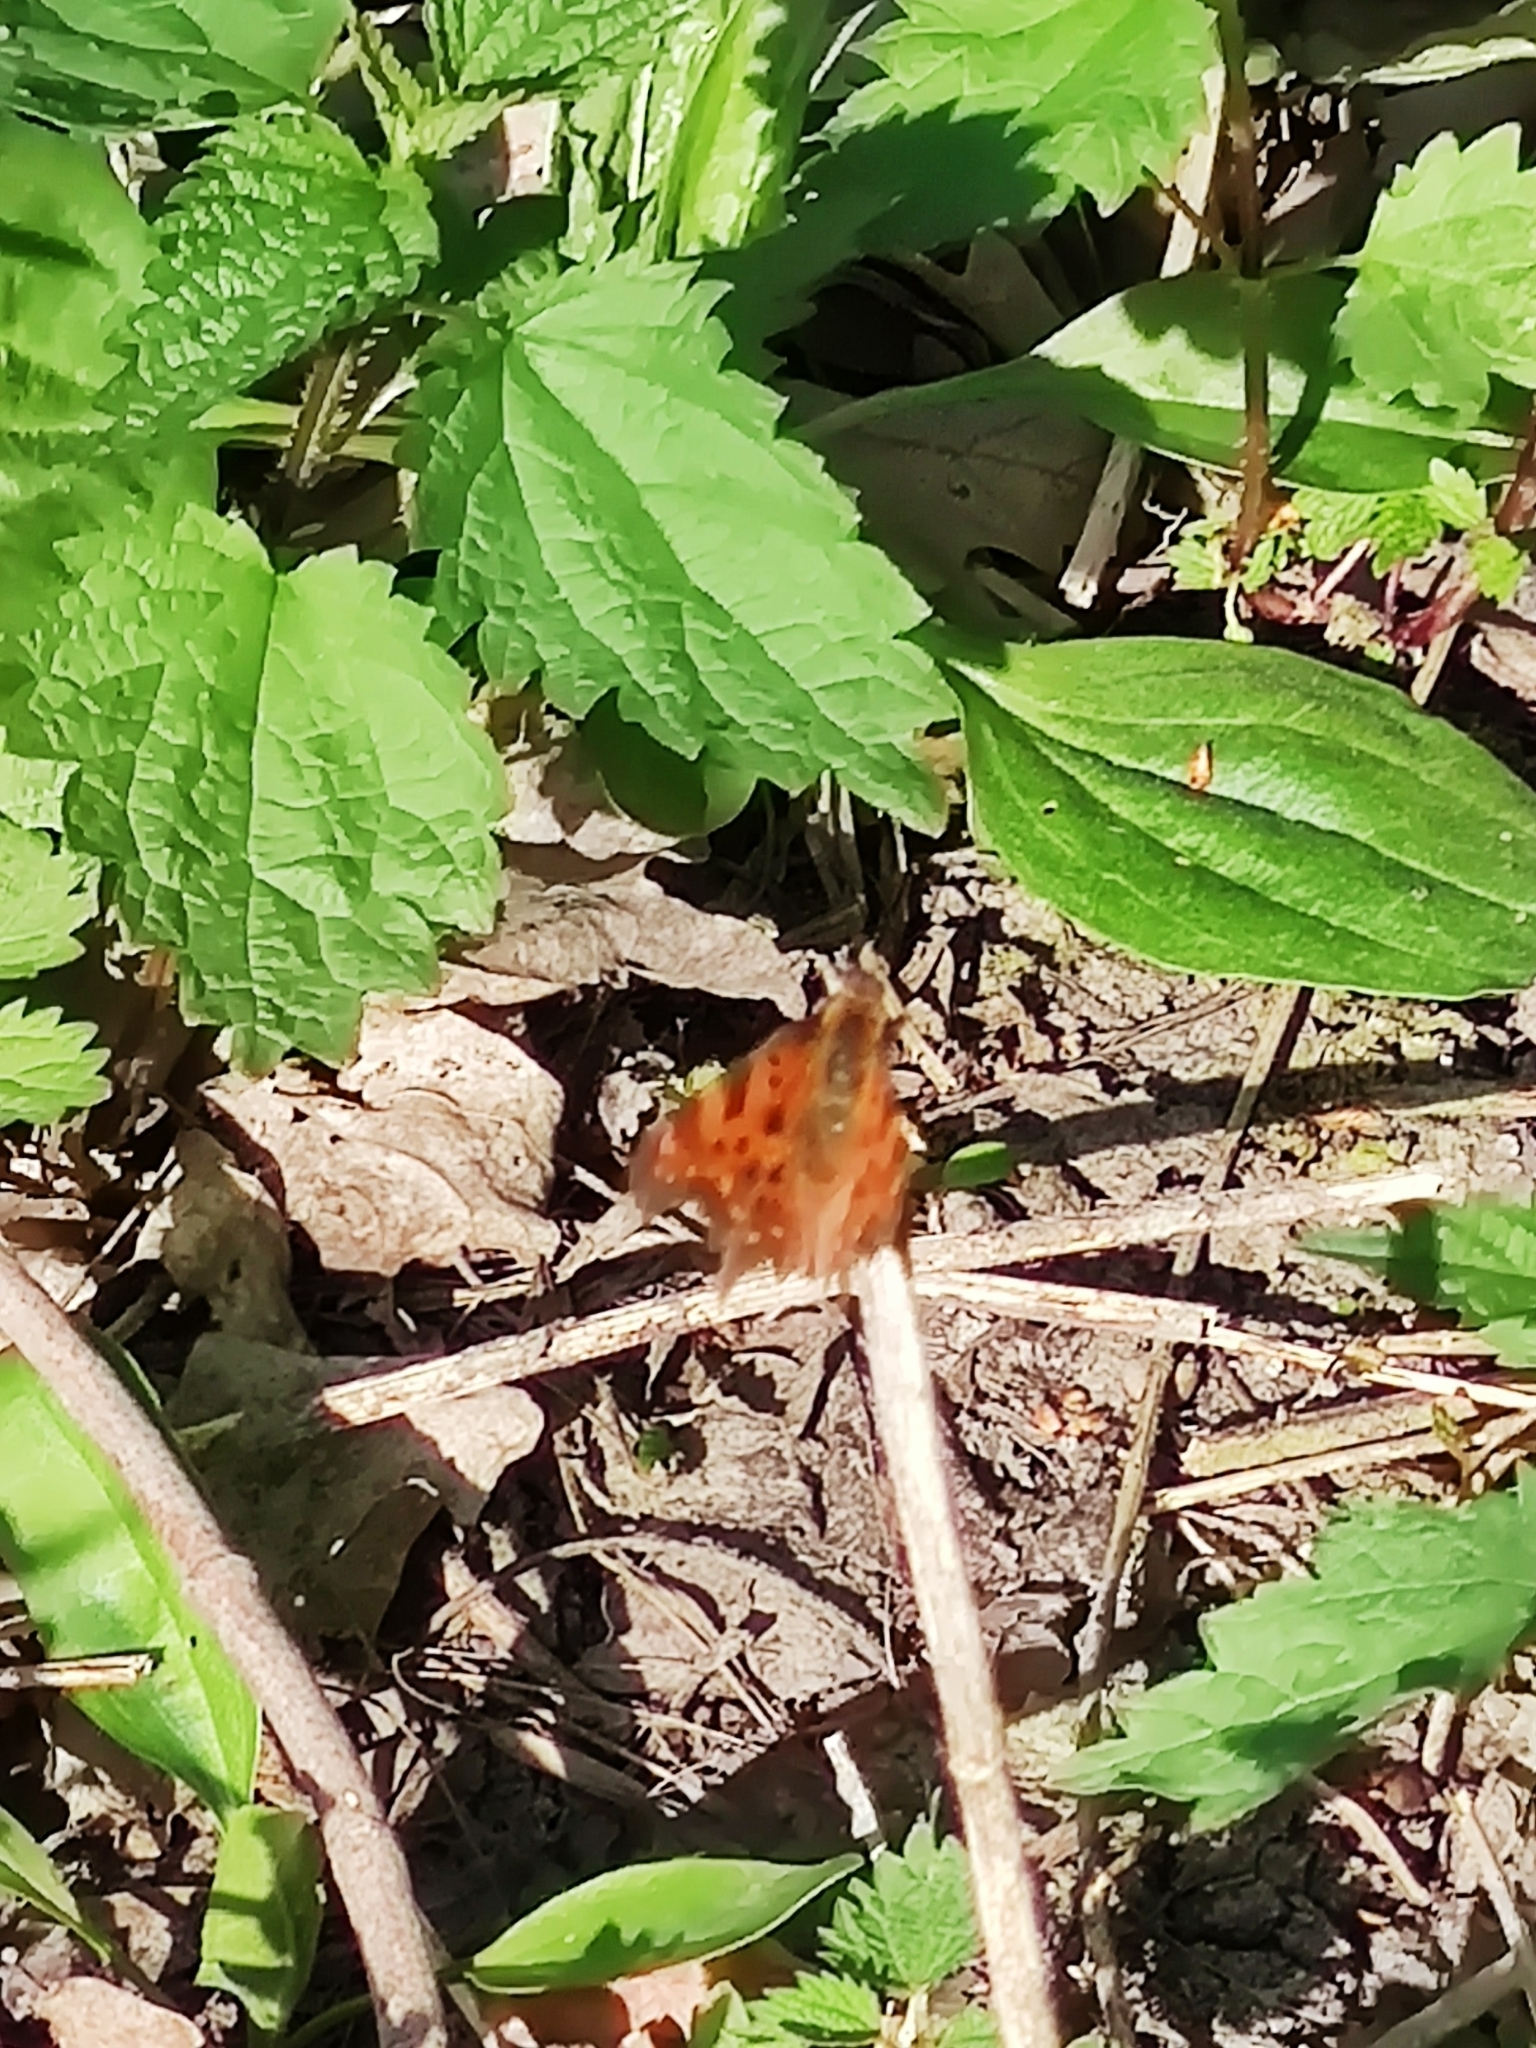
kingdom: Animalia
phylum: Arthropoda
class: Insecta
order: Lepidoptera
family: Nymphalidae
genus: Polygonia
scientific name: Polygonia c-album
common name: Comma
